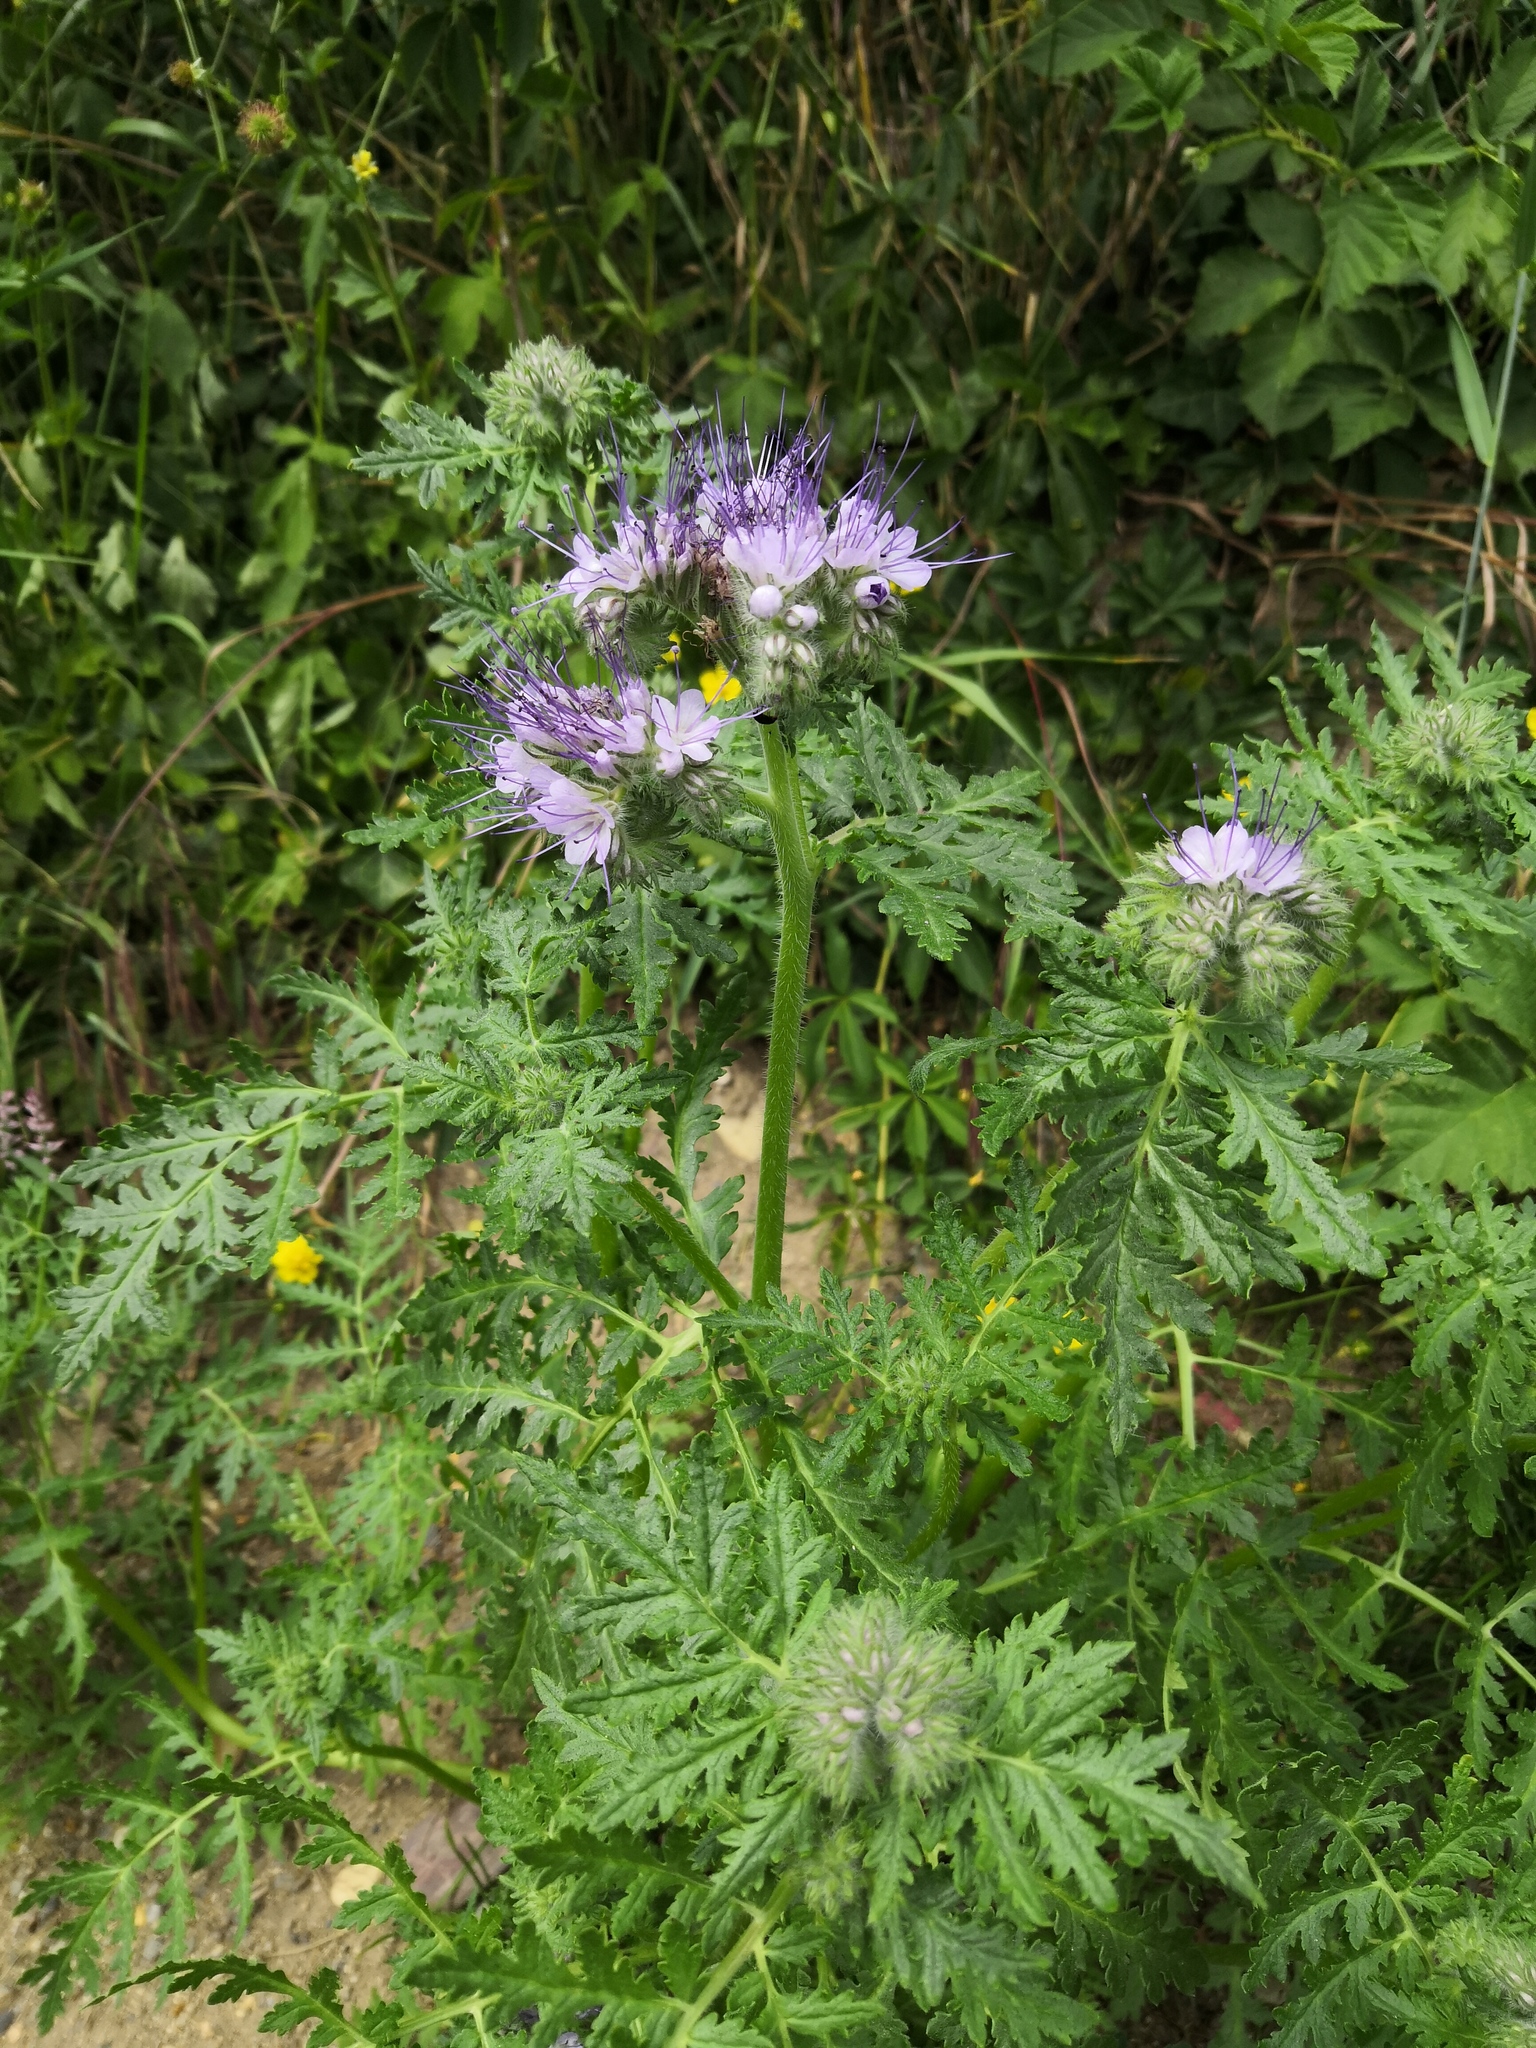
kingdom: Plantae
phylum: Tracheophyta
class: Magnoliopsida
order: Boraginales
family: Hydrophyllaceae
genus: Phacelia
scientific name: Phacelia tanacetifolia
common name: Phacelia
